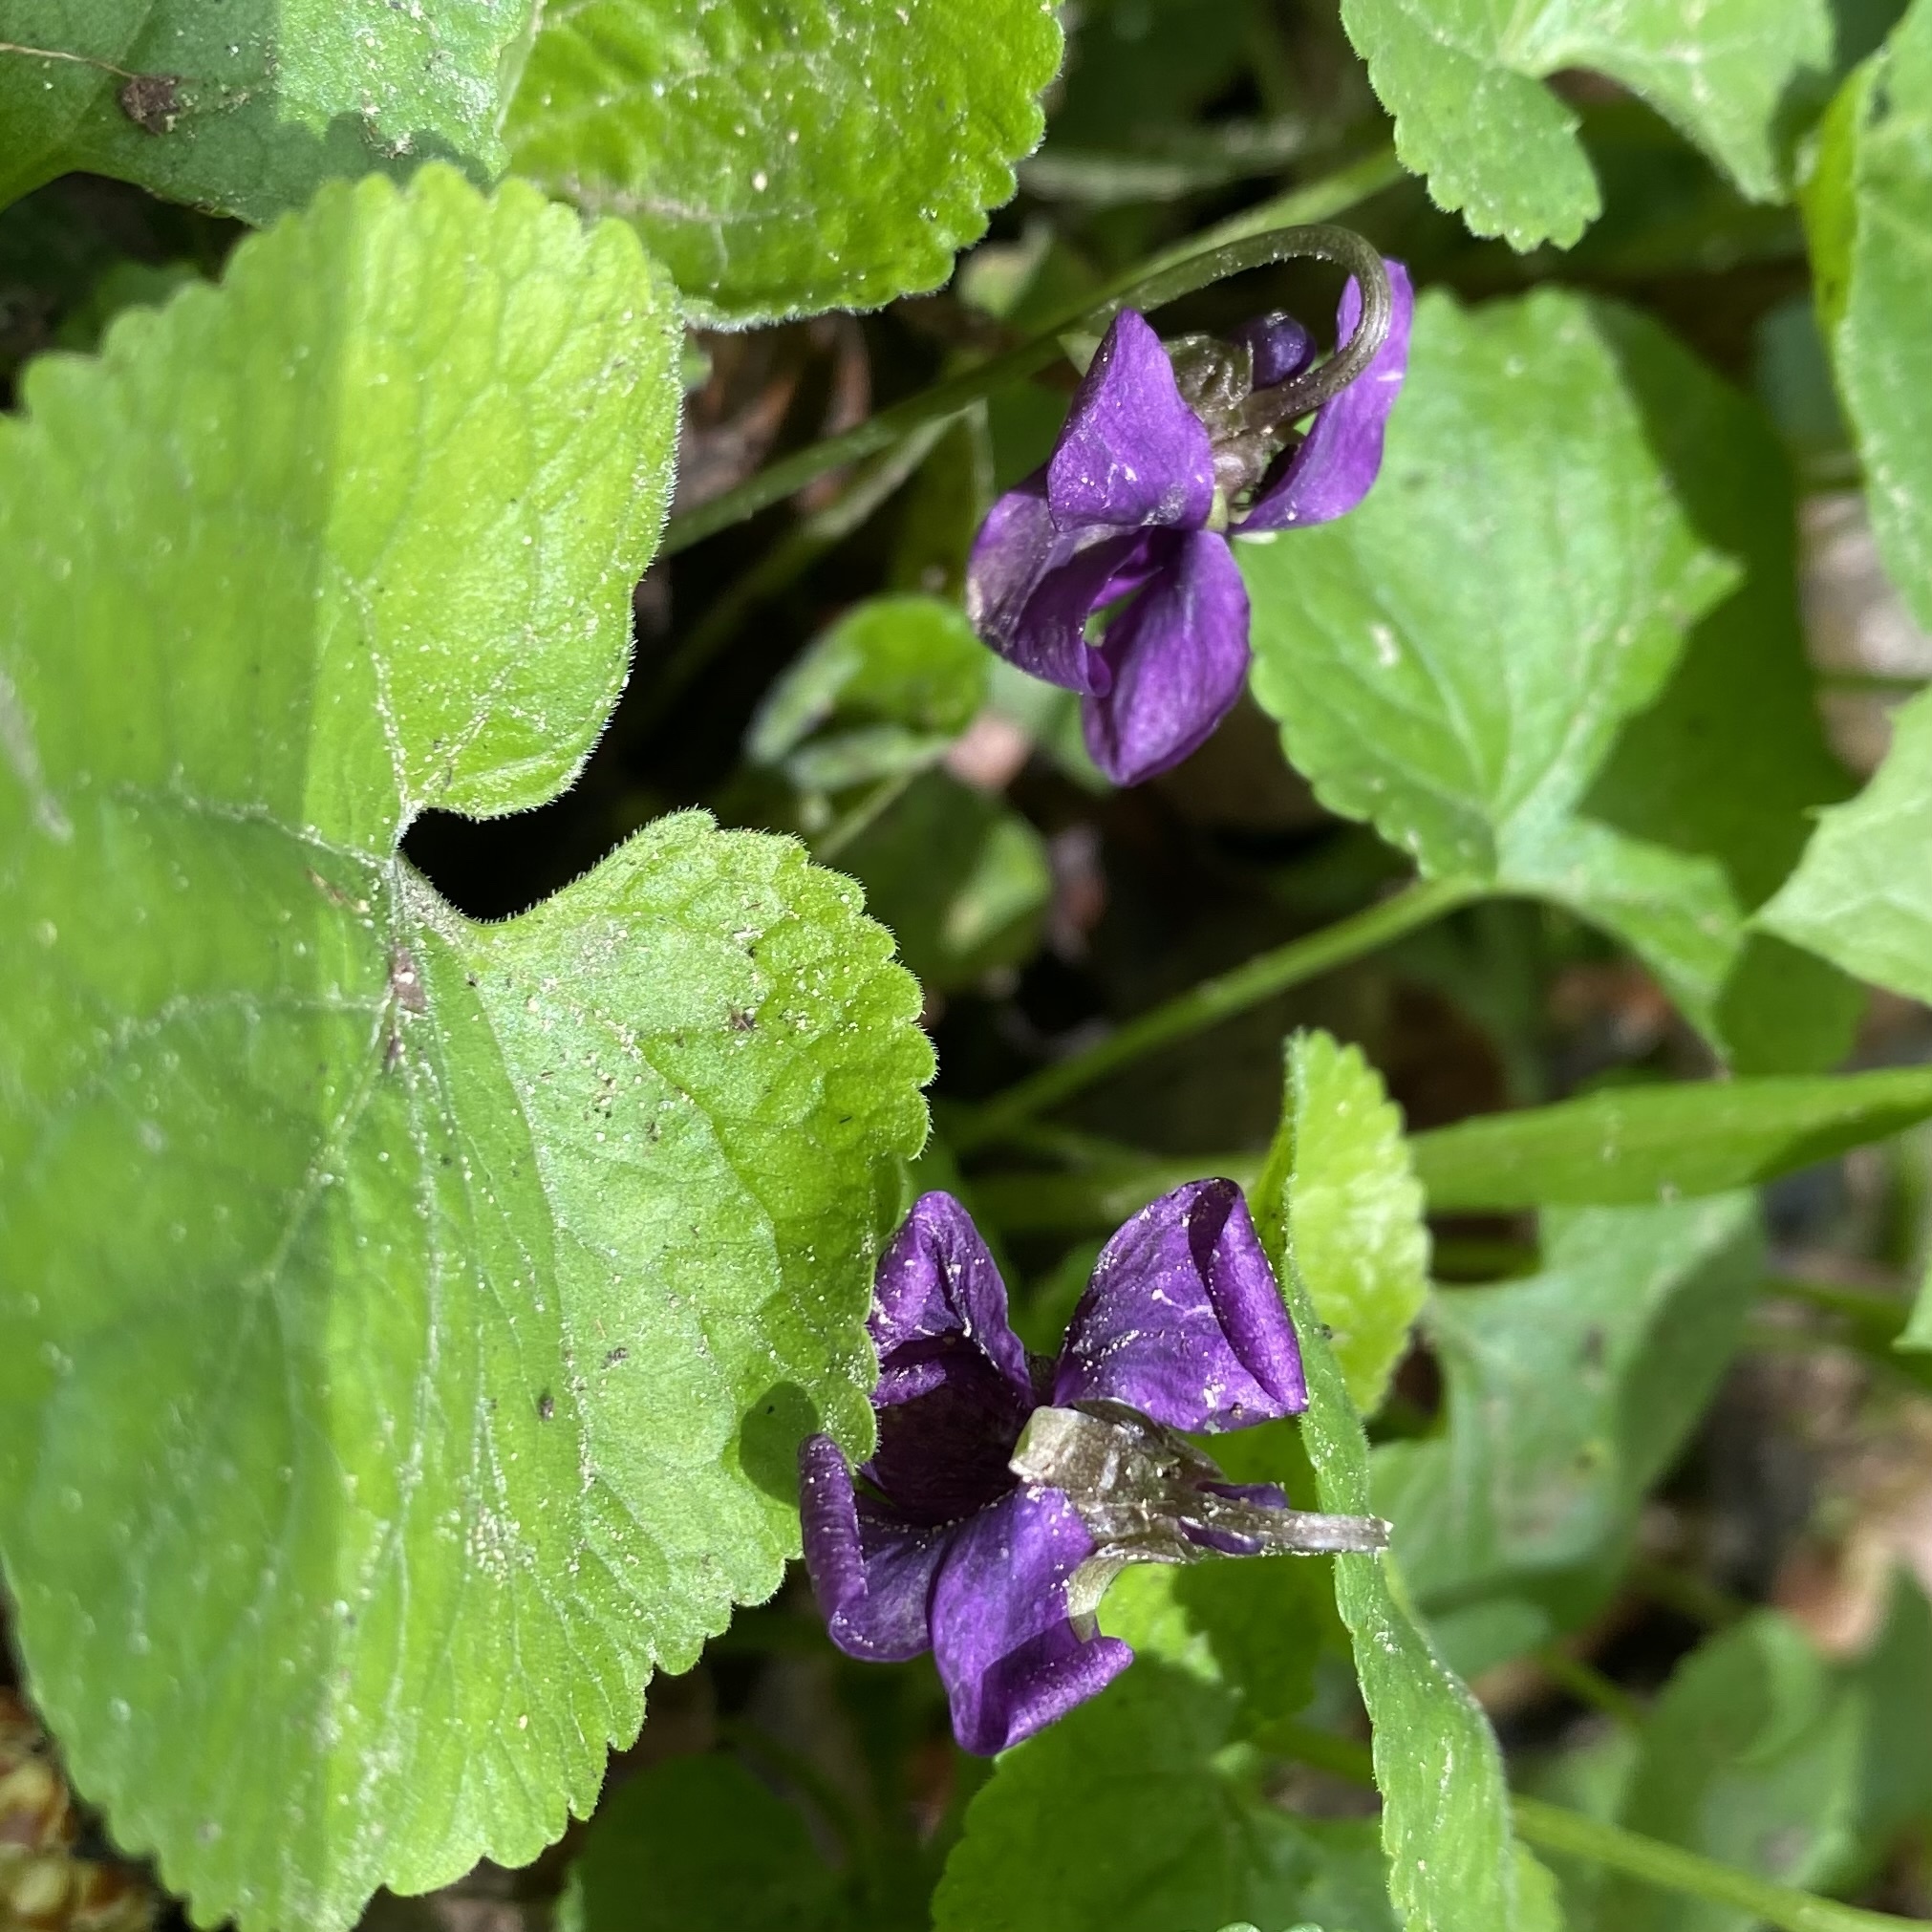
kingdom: Plantae
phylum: Tracheophyta
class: Magnoliopsida
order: Malpighiales
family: Violaceae
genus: Viola
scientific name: Viola odorata
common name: Sweet violet
